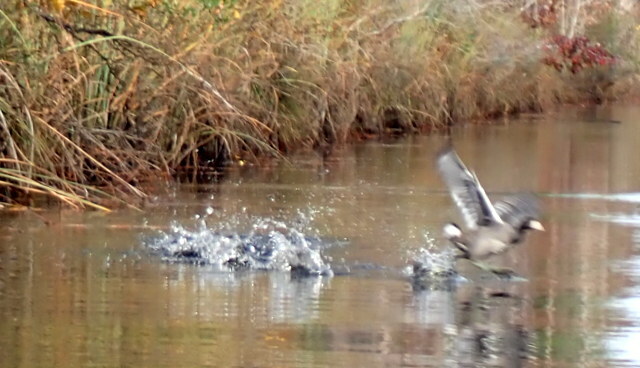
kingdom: Animalia
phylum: Chordata
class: Aves
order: Gruiformes
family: Rallidae
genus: Fulica
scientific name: Fulica americana
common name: American coot
